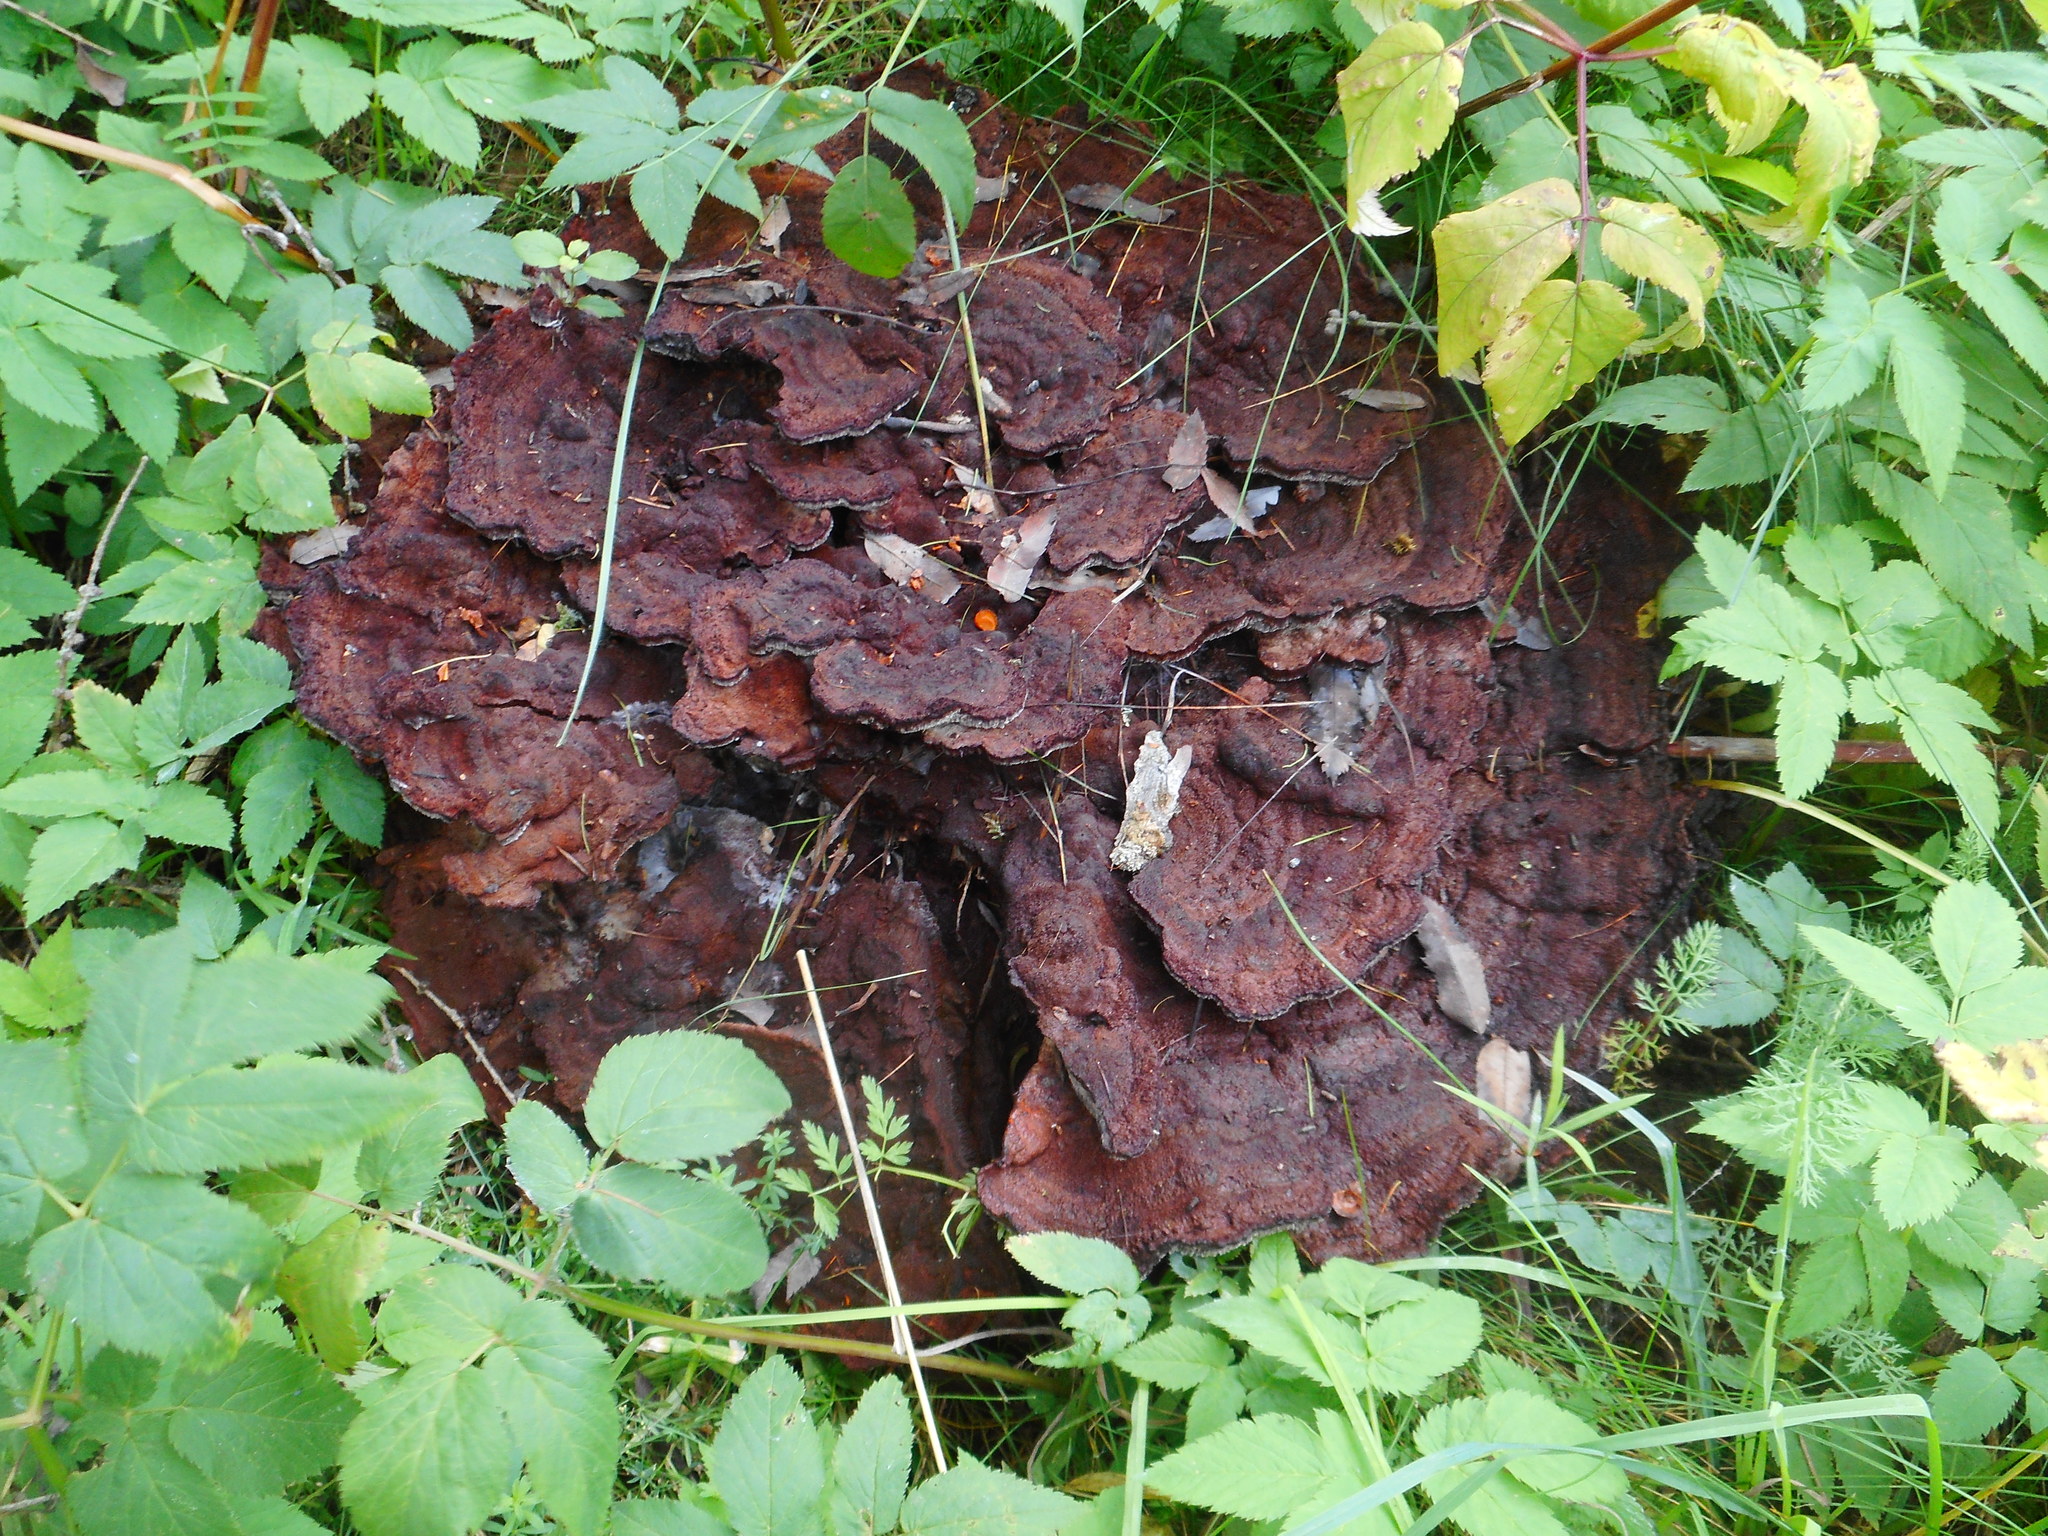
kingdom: Fungi
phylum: Basidiomycota
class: Agaricomycetes
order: Polyporales
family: Laetiporaceae
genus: Phaeolus
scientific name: Phaeolus schweinitzii
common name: Dyer's mazegill
